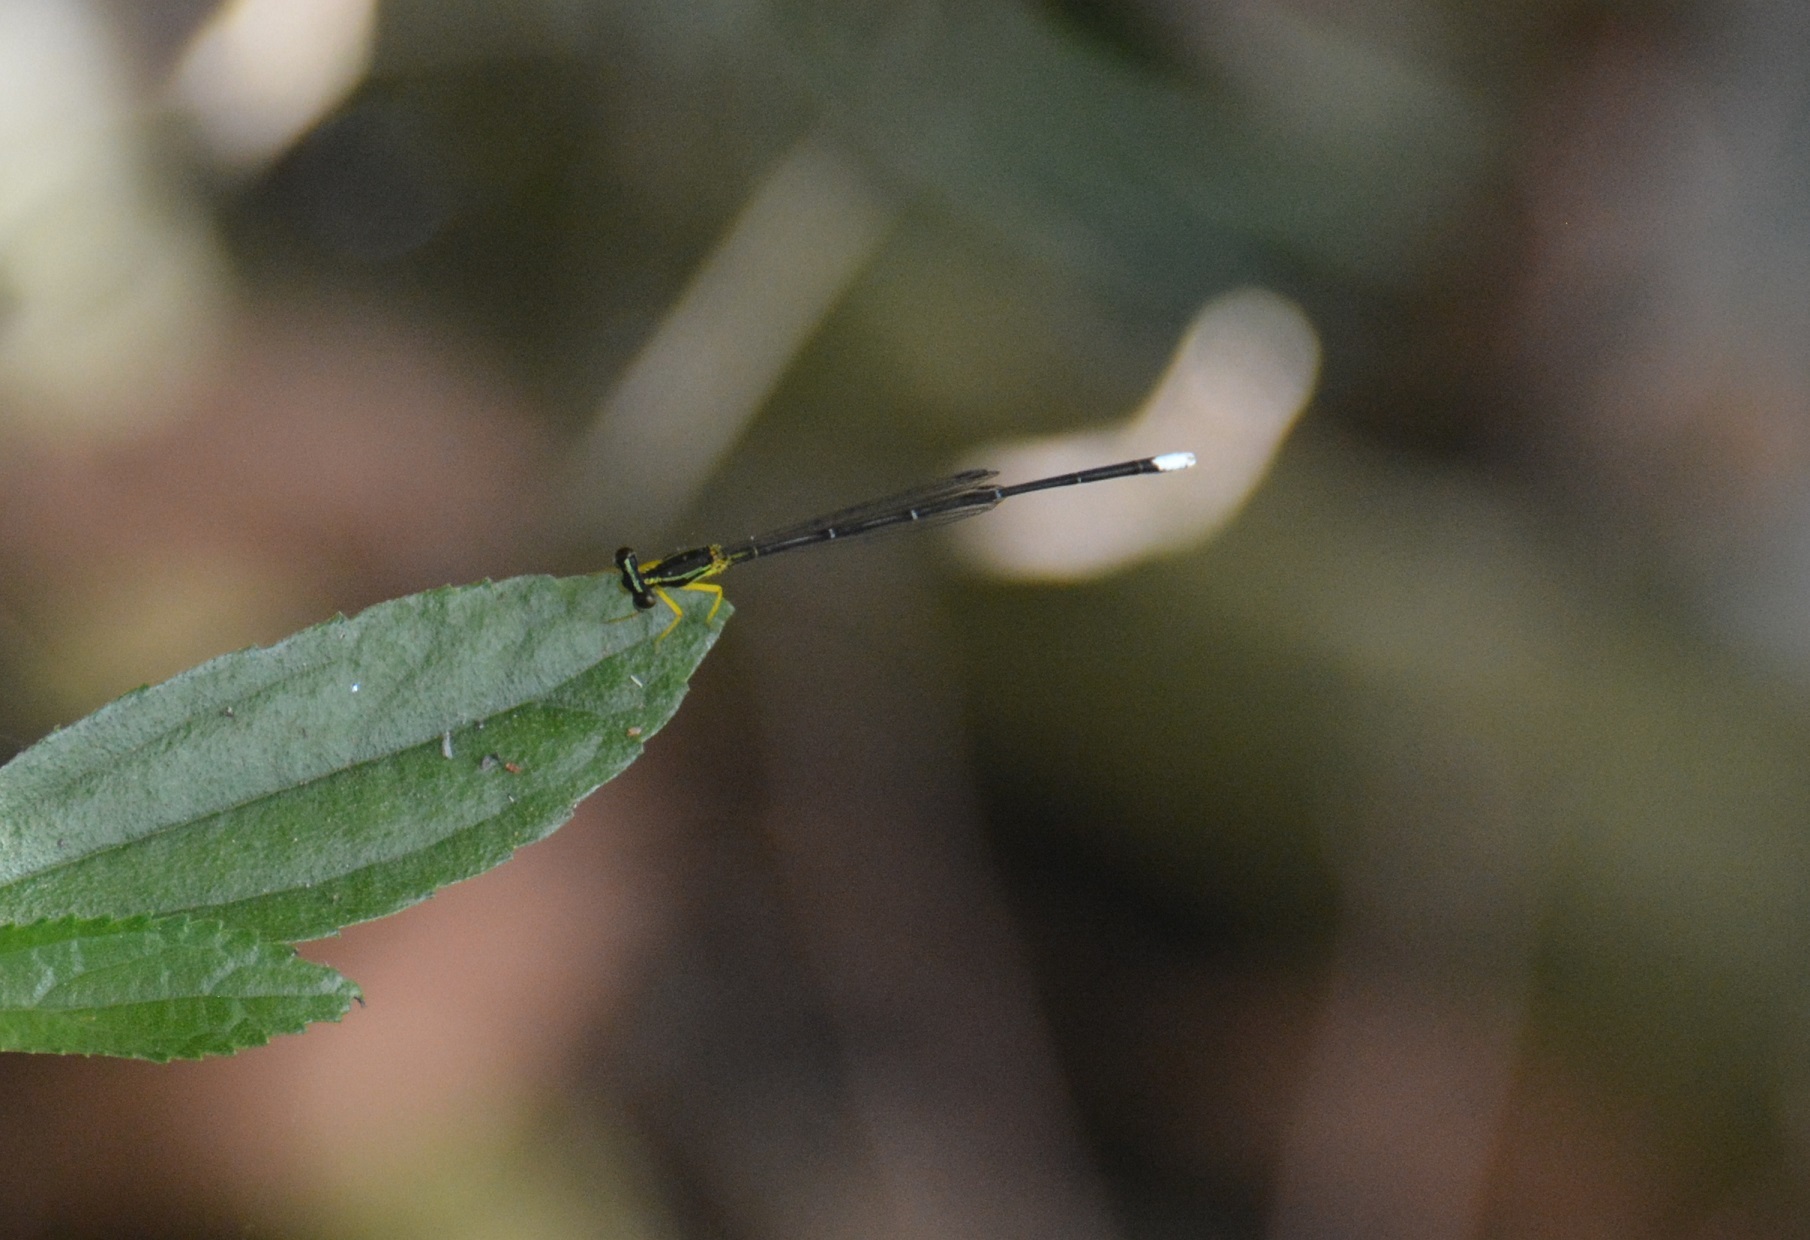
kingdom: Animalia
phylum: Arthropoda
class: Insecta
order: Odonata
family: Platycnemididae
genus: Copera
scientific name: Copera marginipes
